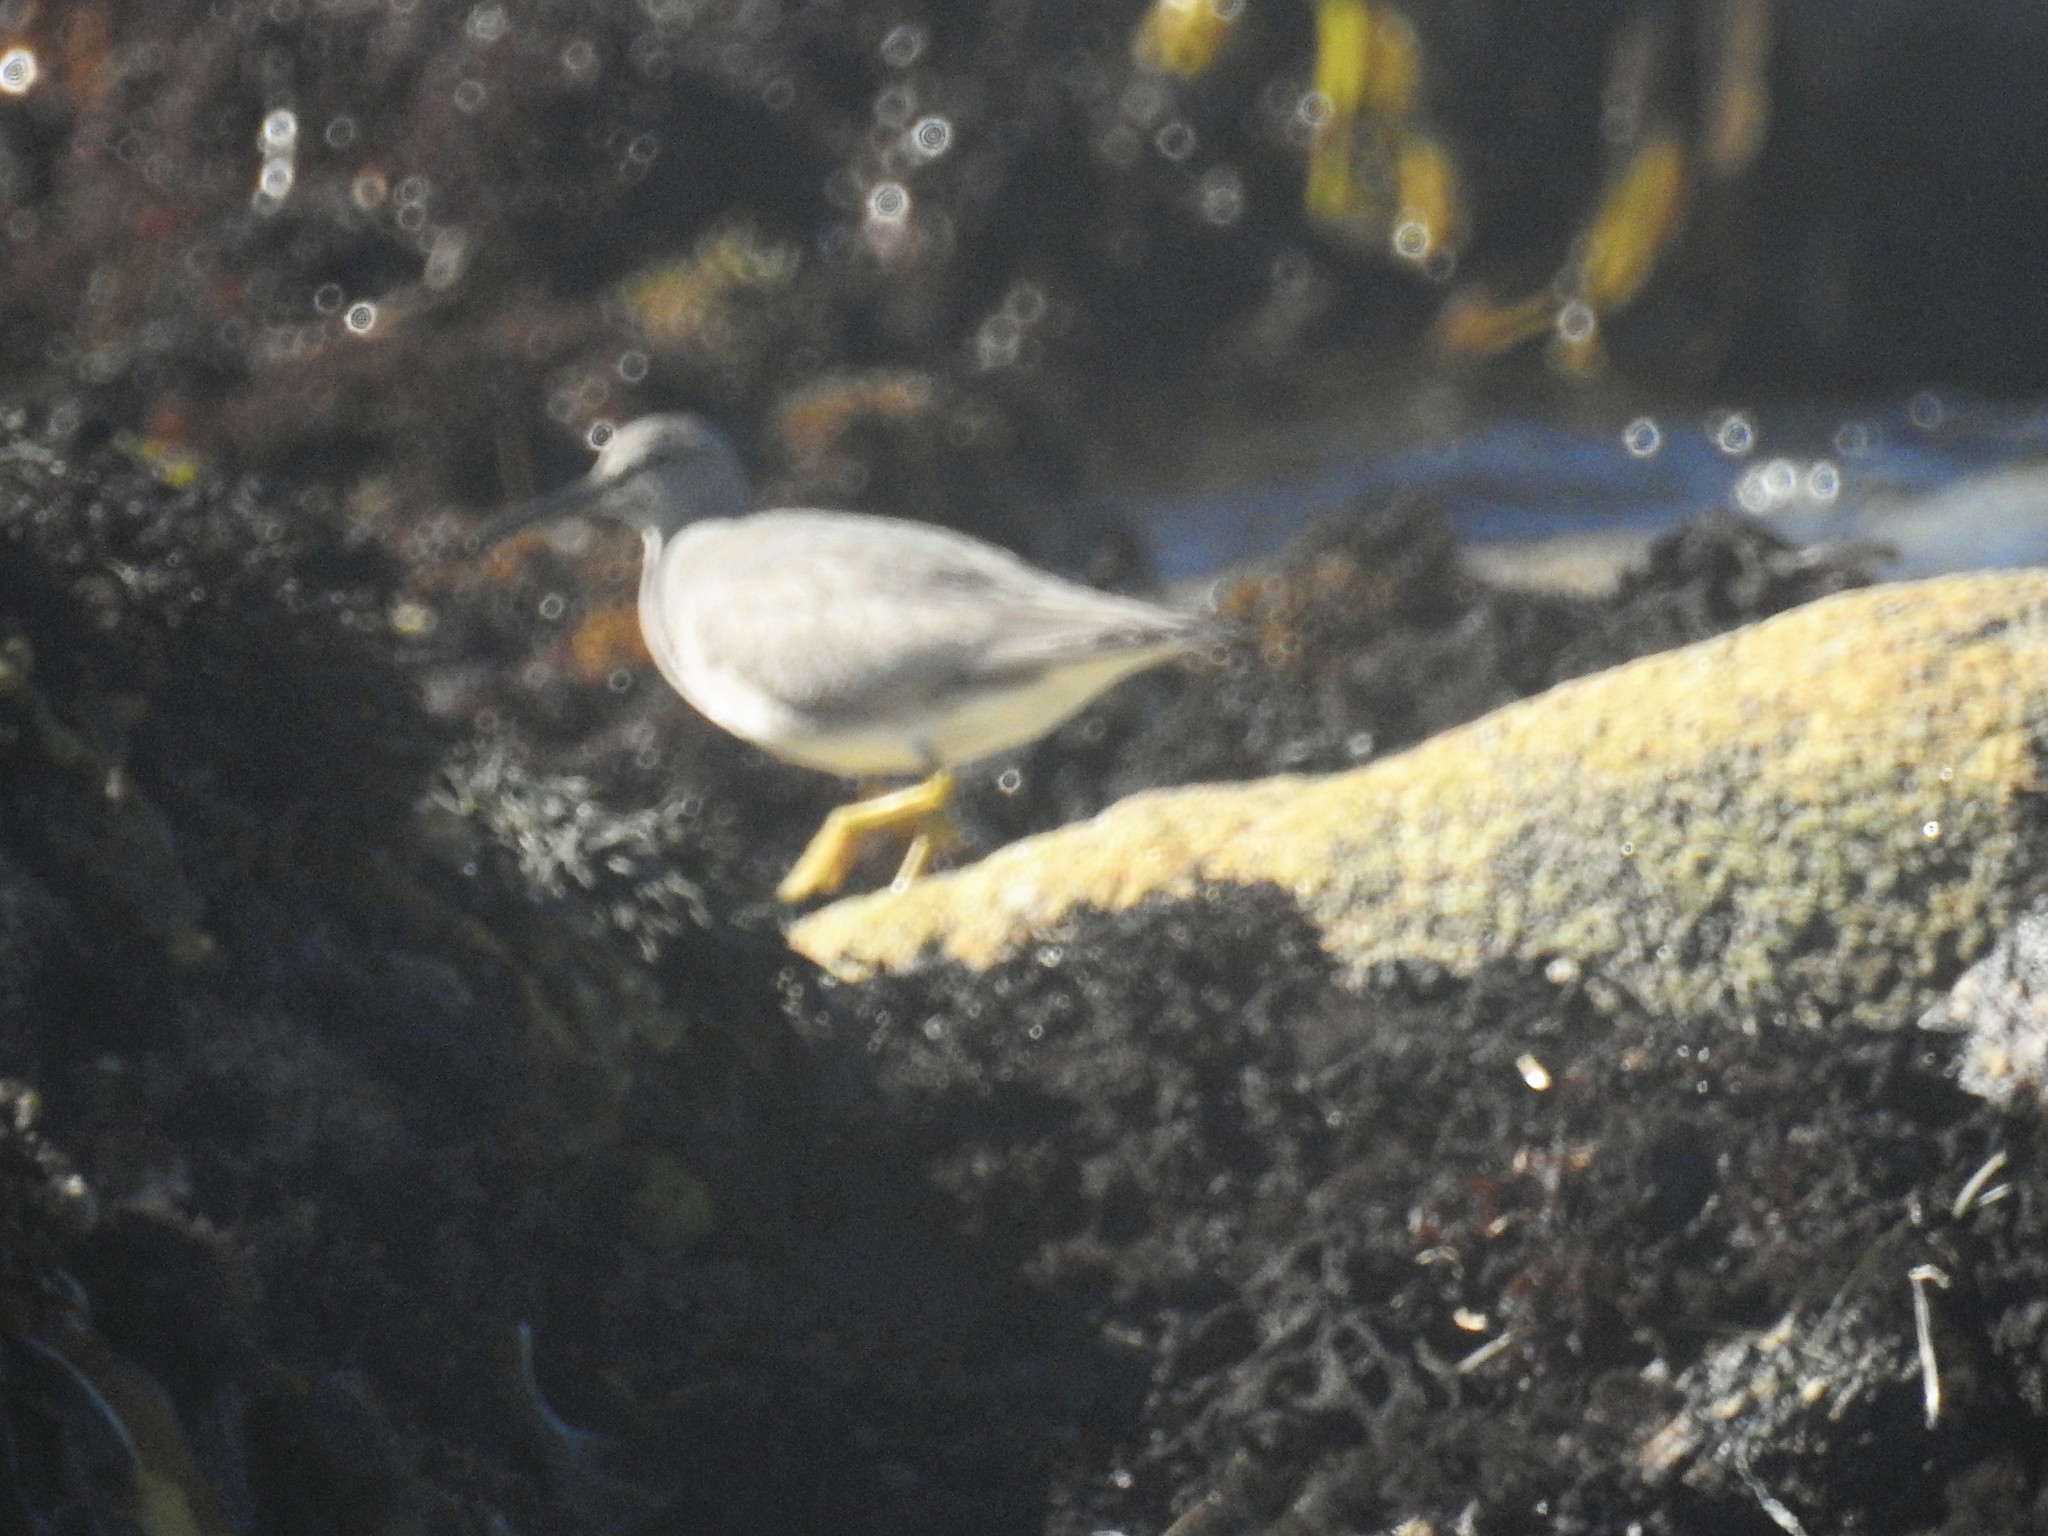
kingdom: Animalia
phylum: Chordata
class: Aves
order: Charadriiformes
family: Scolopacidae
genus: Tringa
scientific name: Tringa incana
